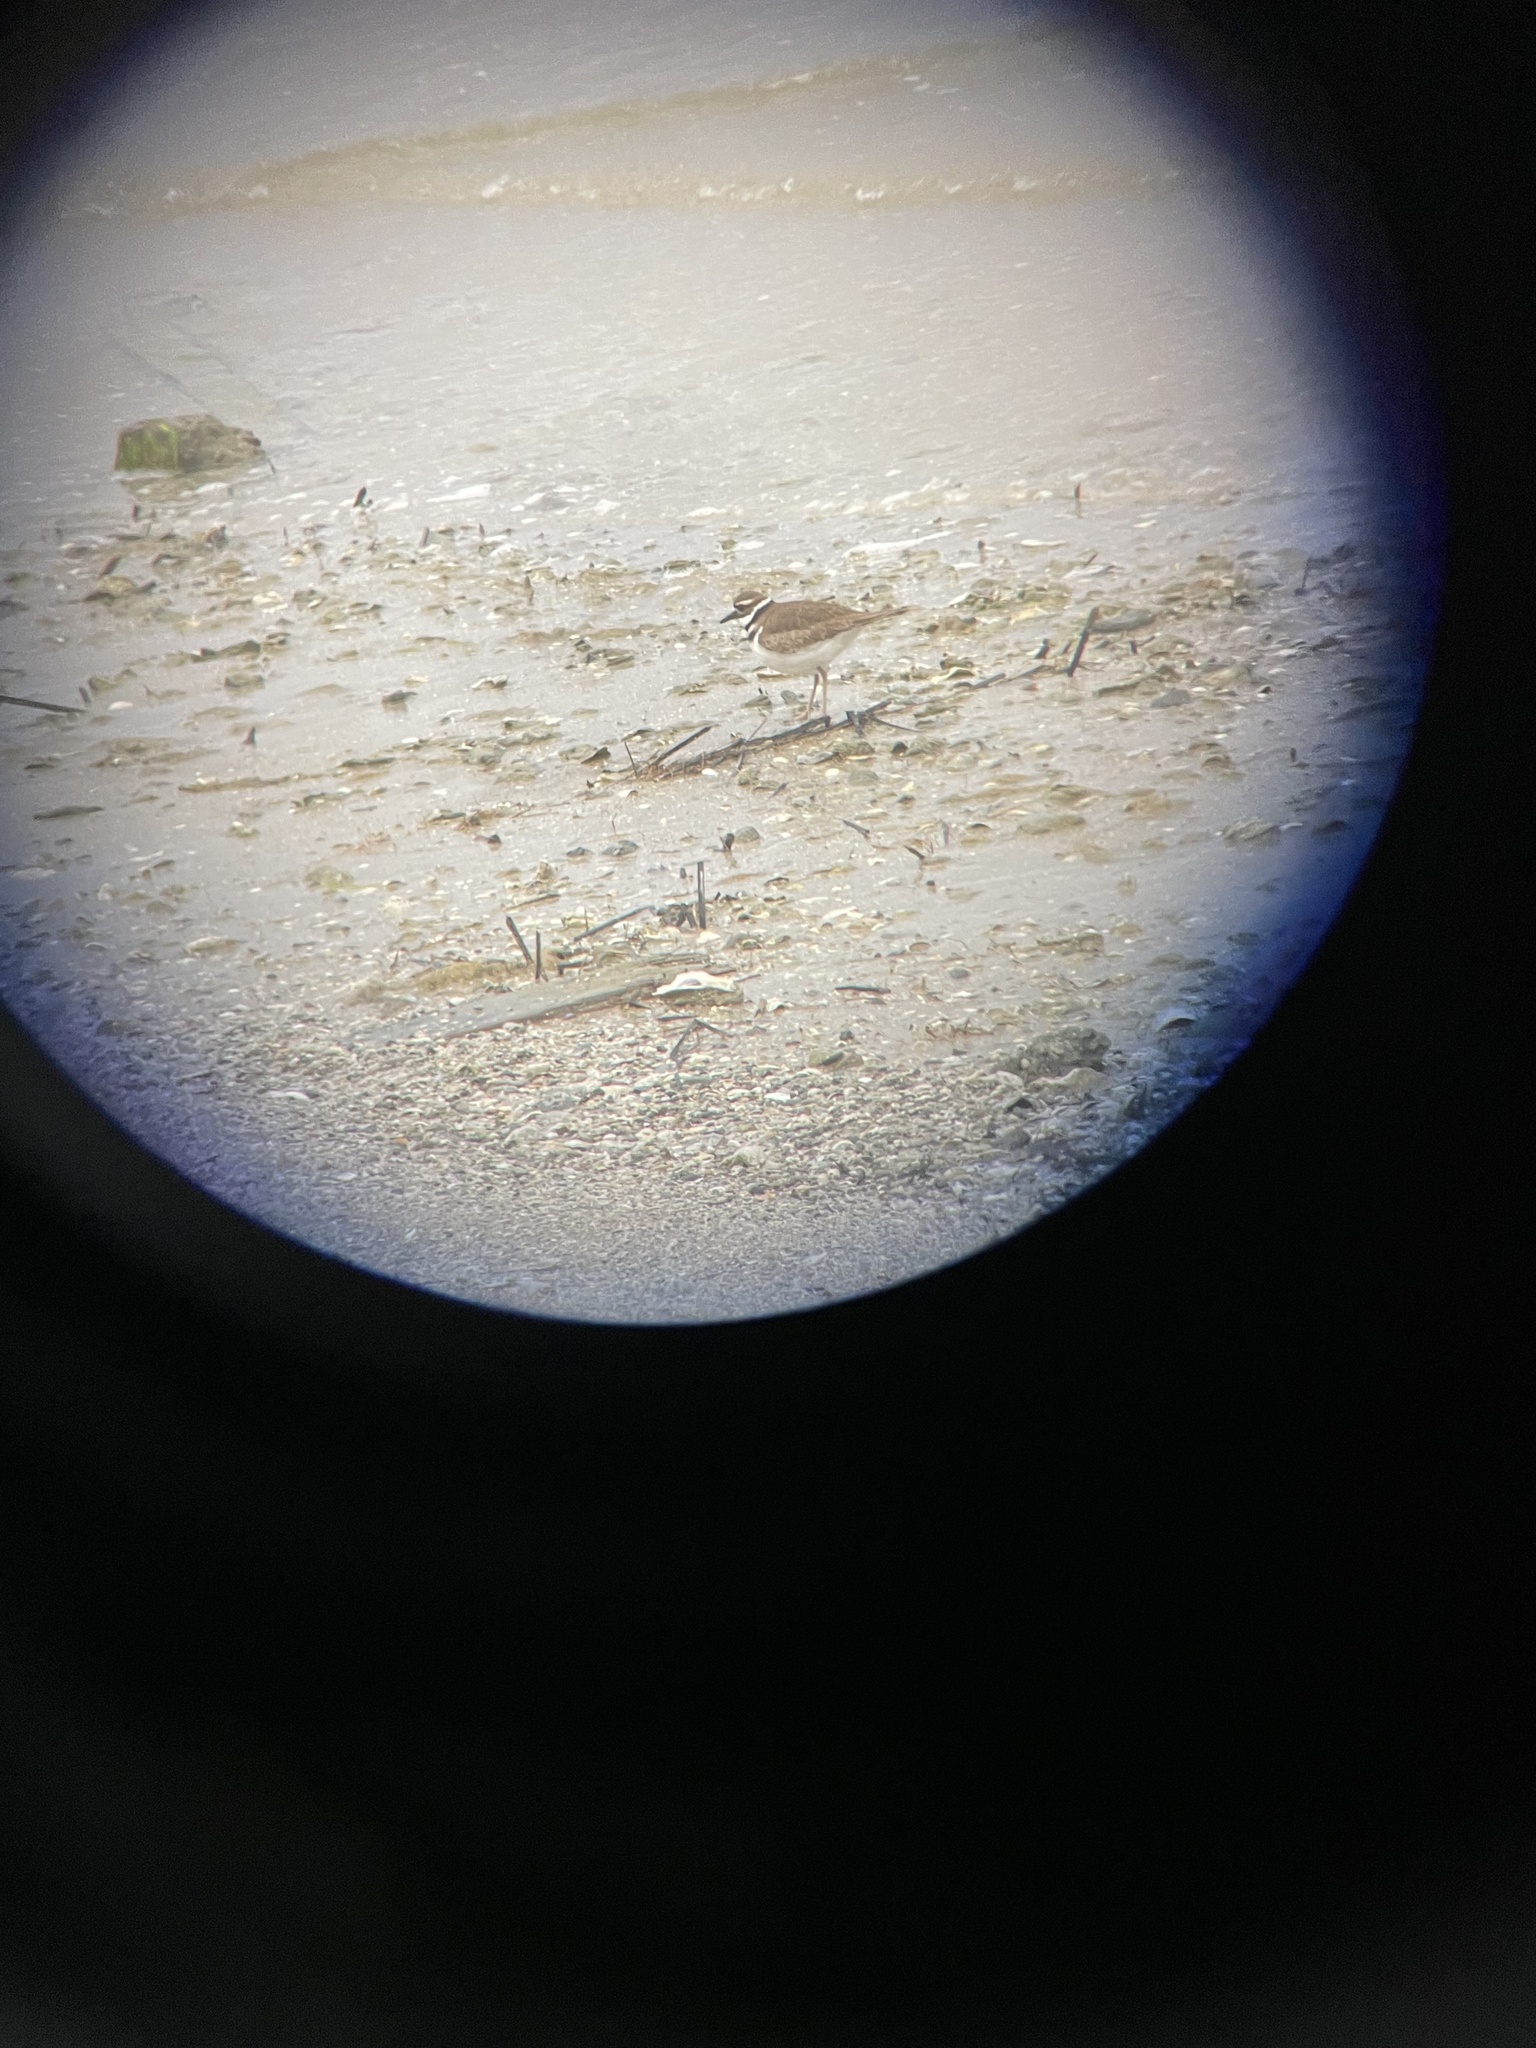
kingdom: Animalia
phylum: Chordata
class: Aves
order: Charadriiformes
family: Charadriidae
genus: Charadrius
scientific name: Charadrius vociferus
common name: Killdeer
